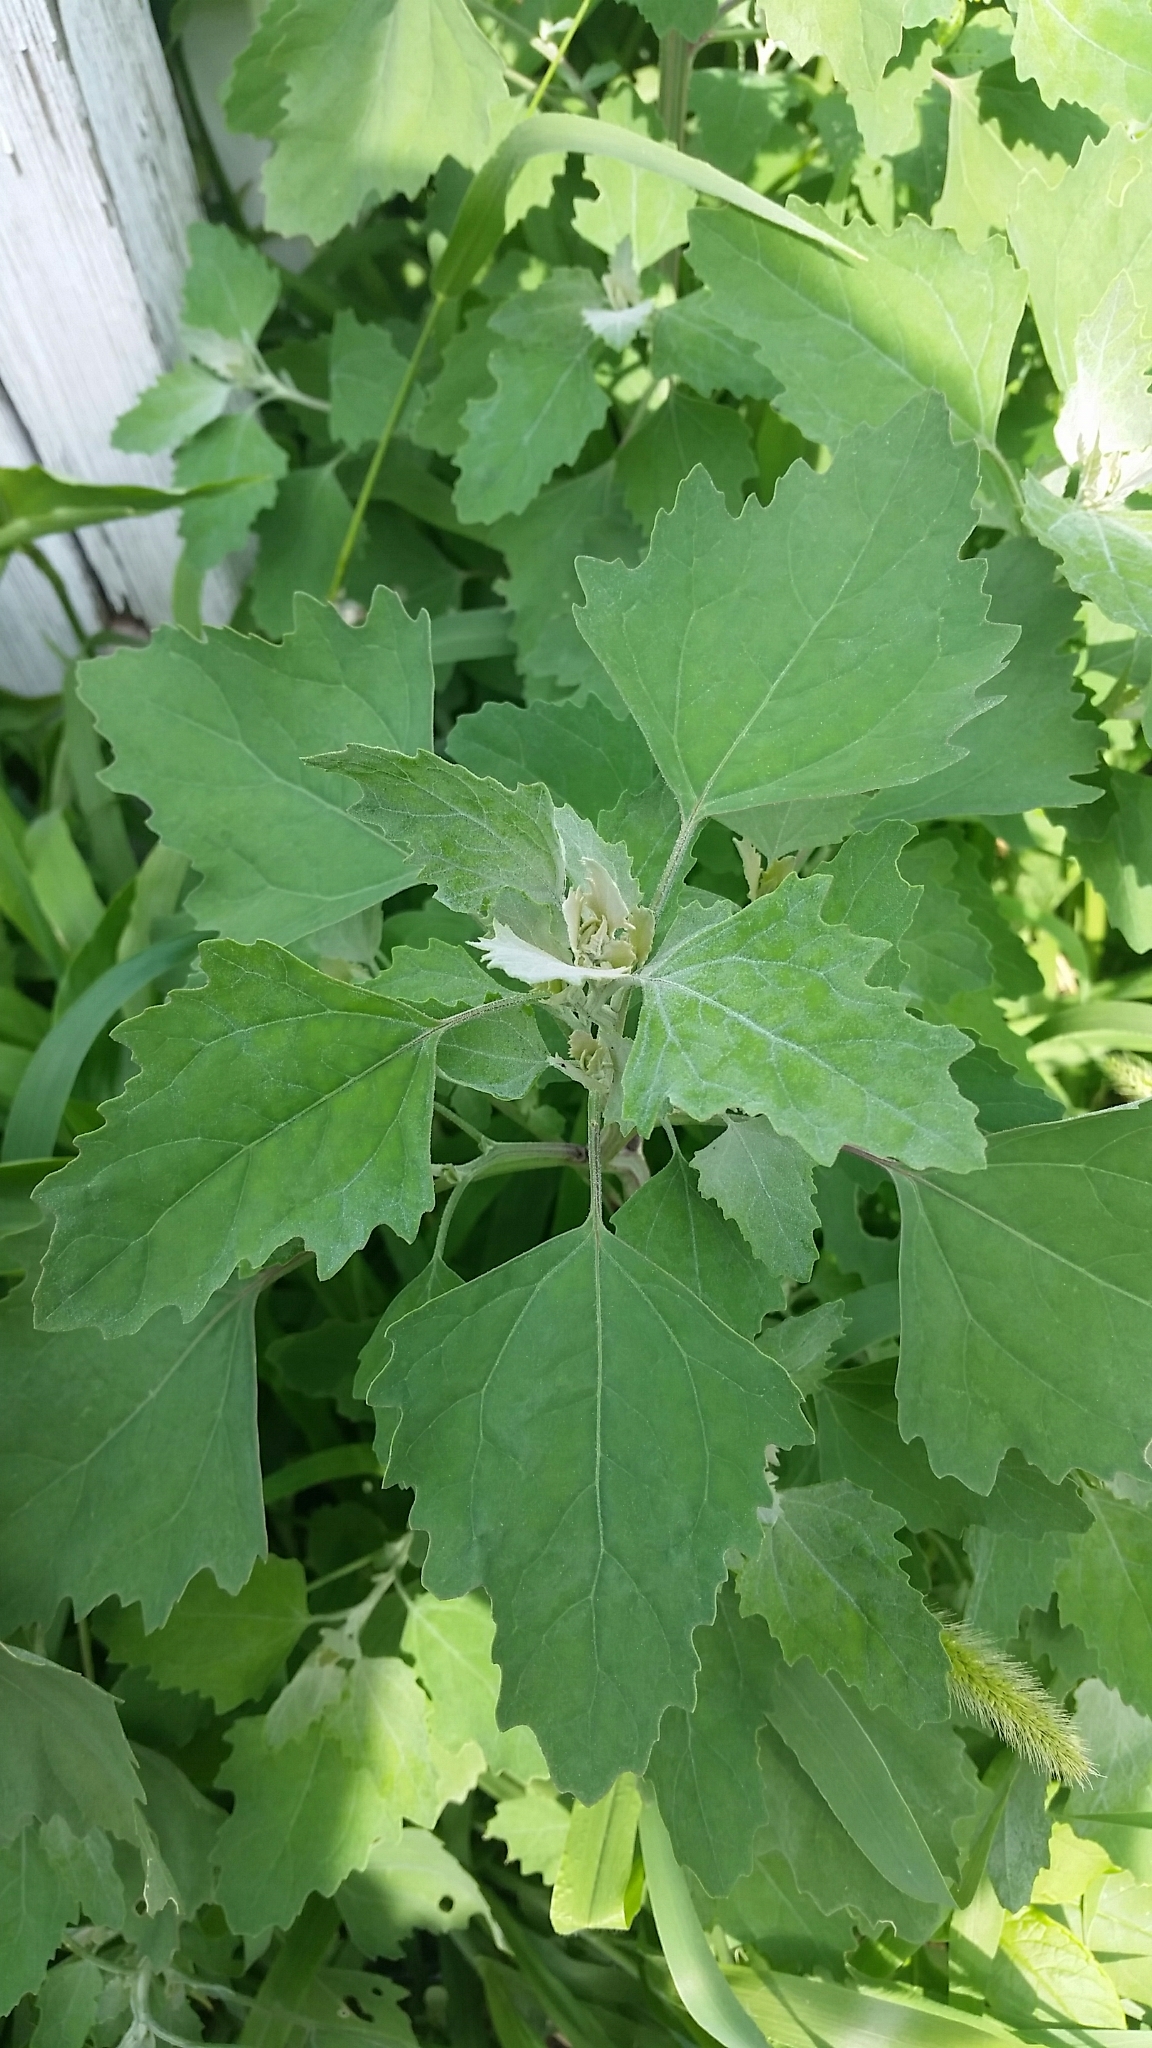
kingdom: Plantae
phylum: Tracheophyta
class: Magnoliopsida
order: Caryophyllales
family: Amaranthaceae
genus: Chenopodium
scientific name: Chenopodium album
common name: Fat-hen
